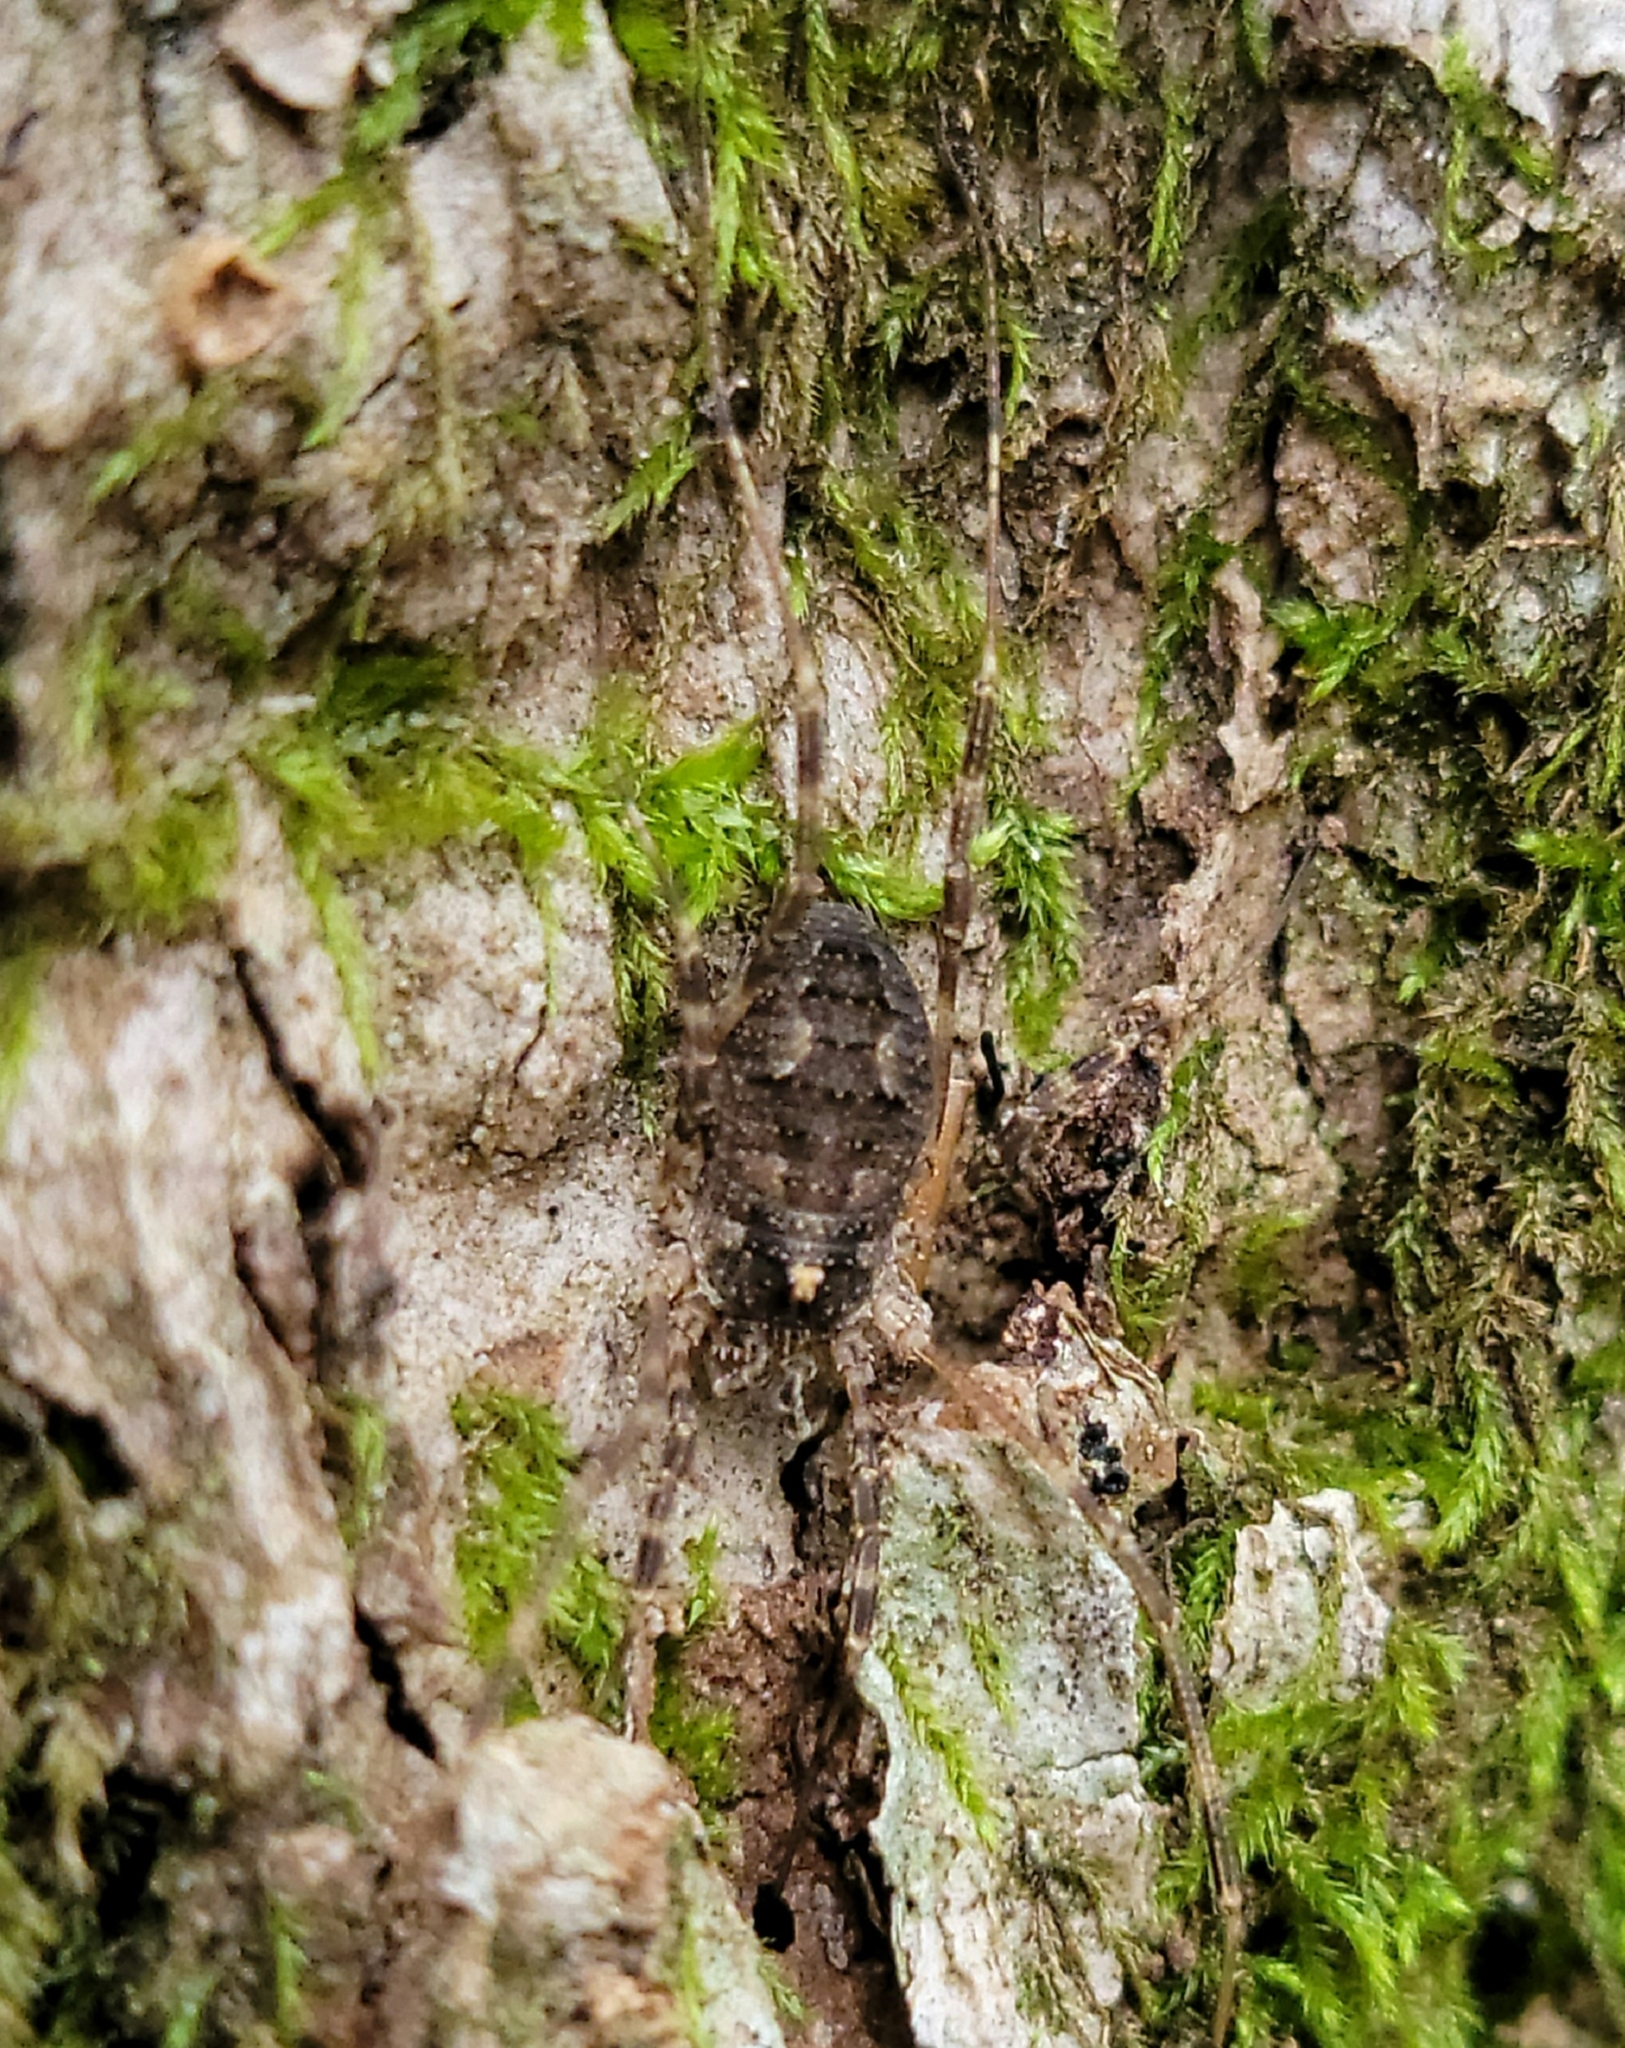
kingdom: Animalia
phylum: Arthropoda
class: Arachnida
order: Opiliones
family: Phalangiidae
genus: Odiellus
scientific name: Odiellus pictus
